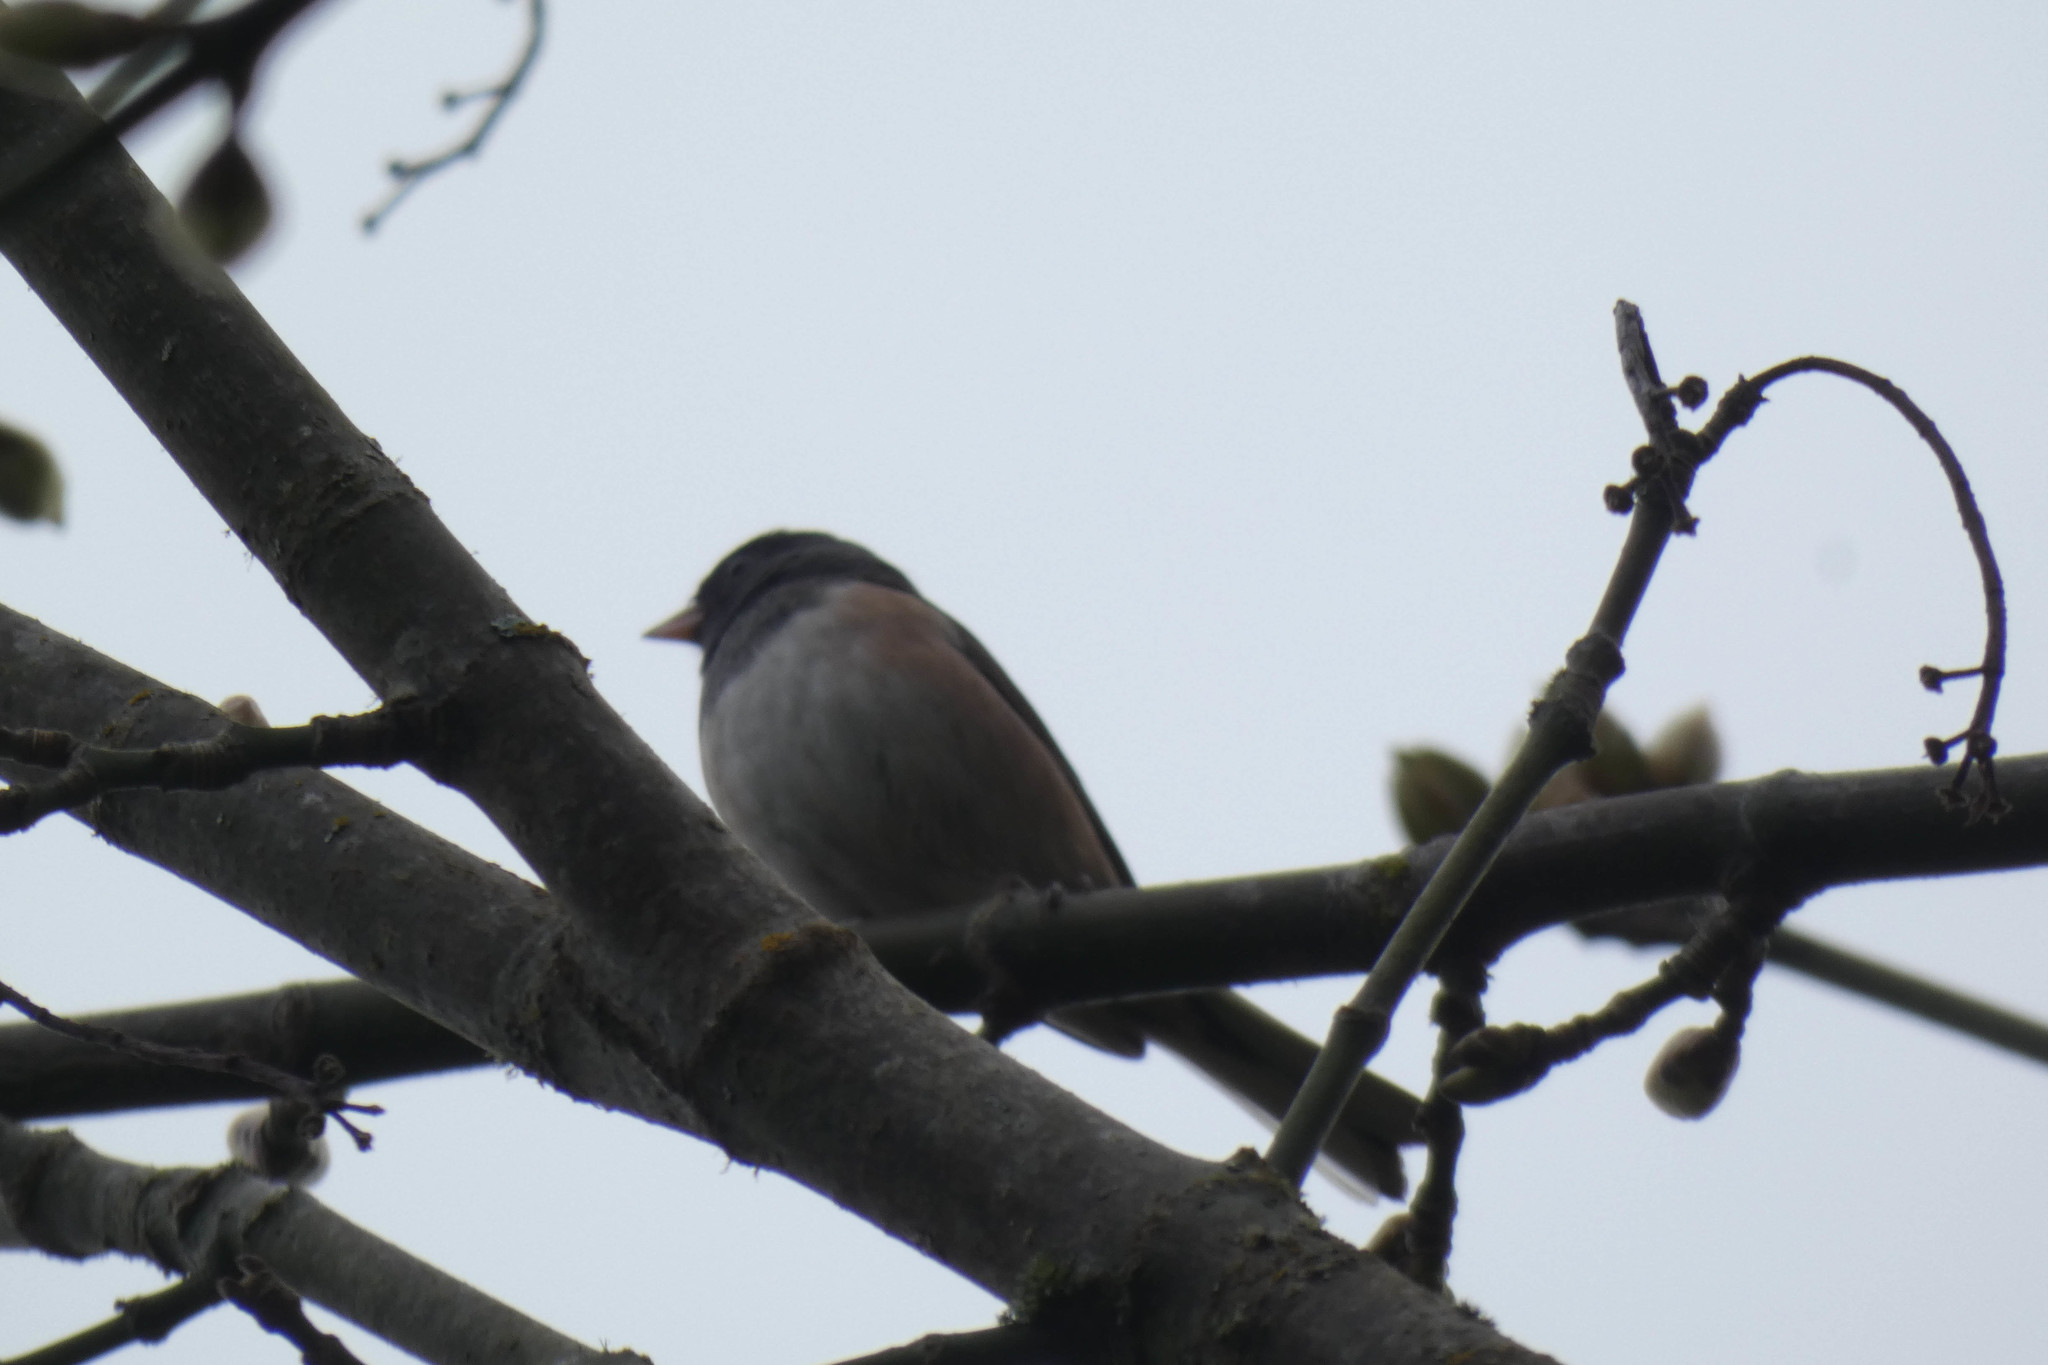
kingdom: Animalia
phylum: Chordata
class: Aves
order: Passeriformes
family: Passerellidae
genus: Junco
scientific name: Junco hyemalis
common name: Dark-eyed junco
